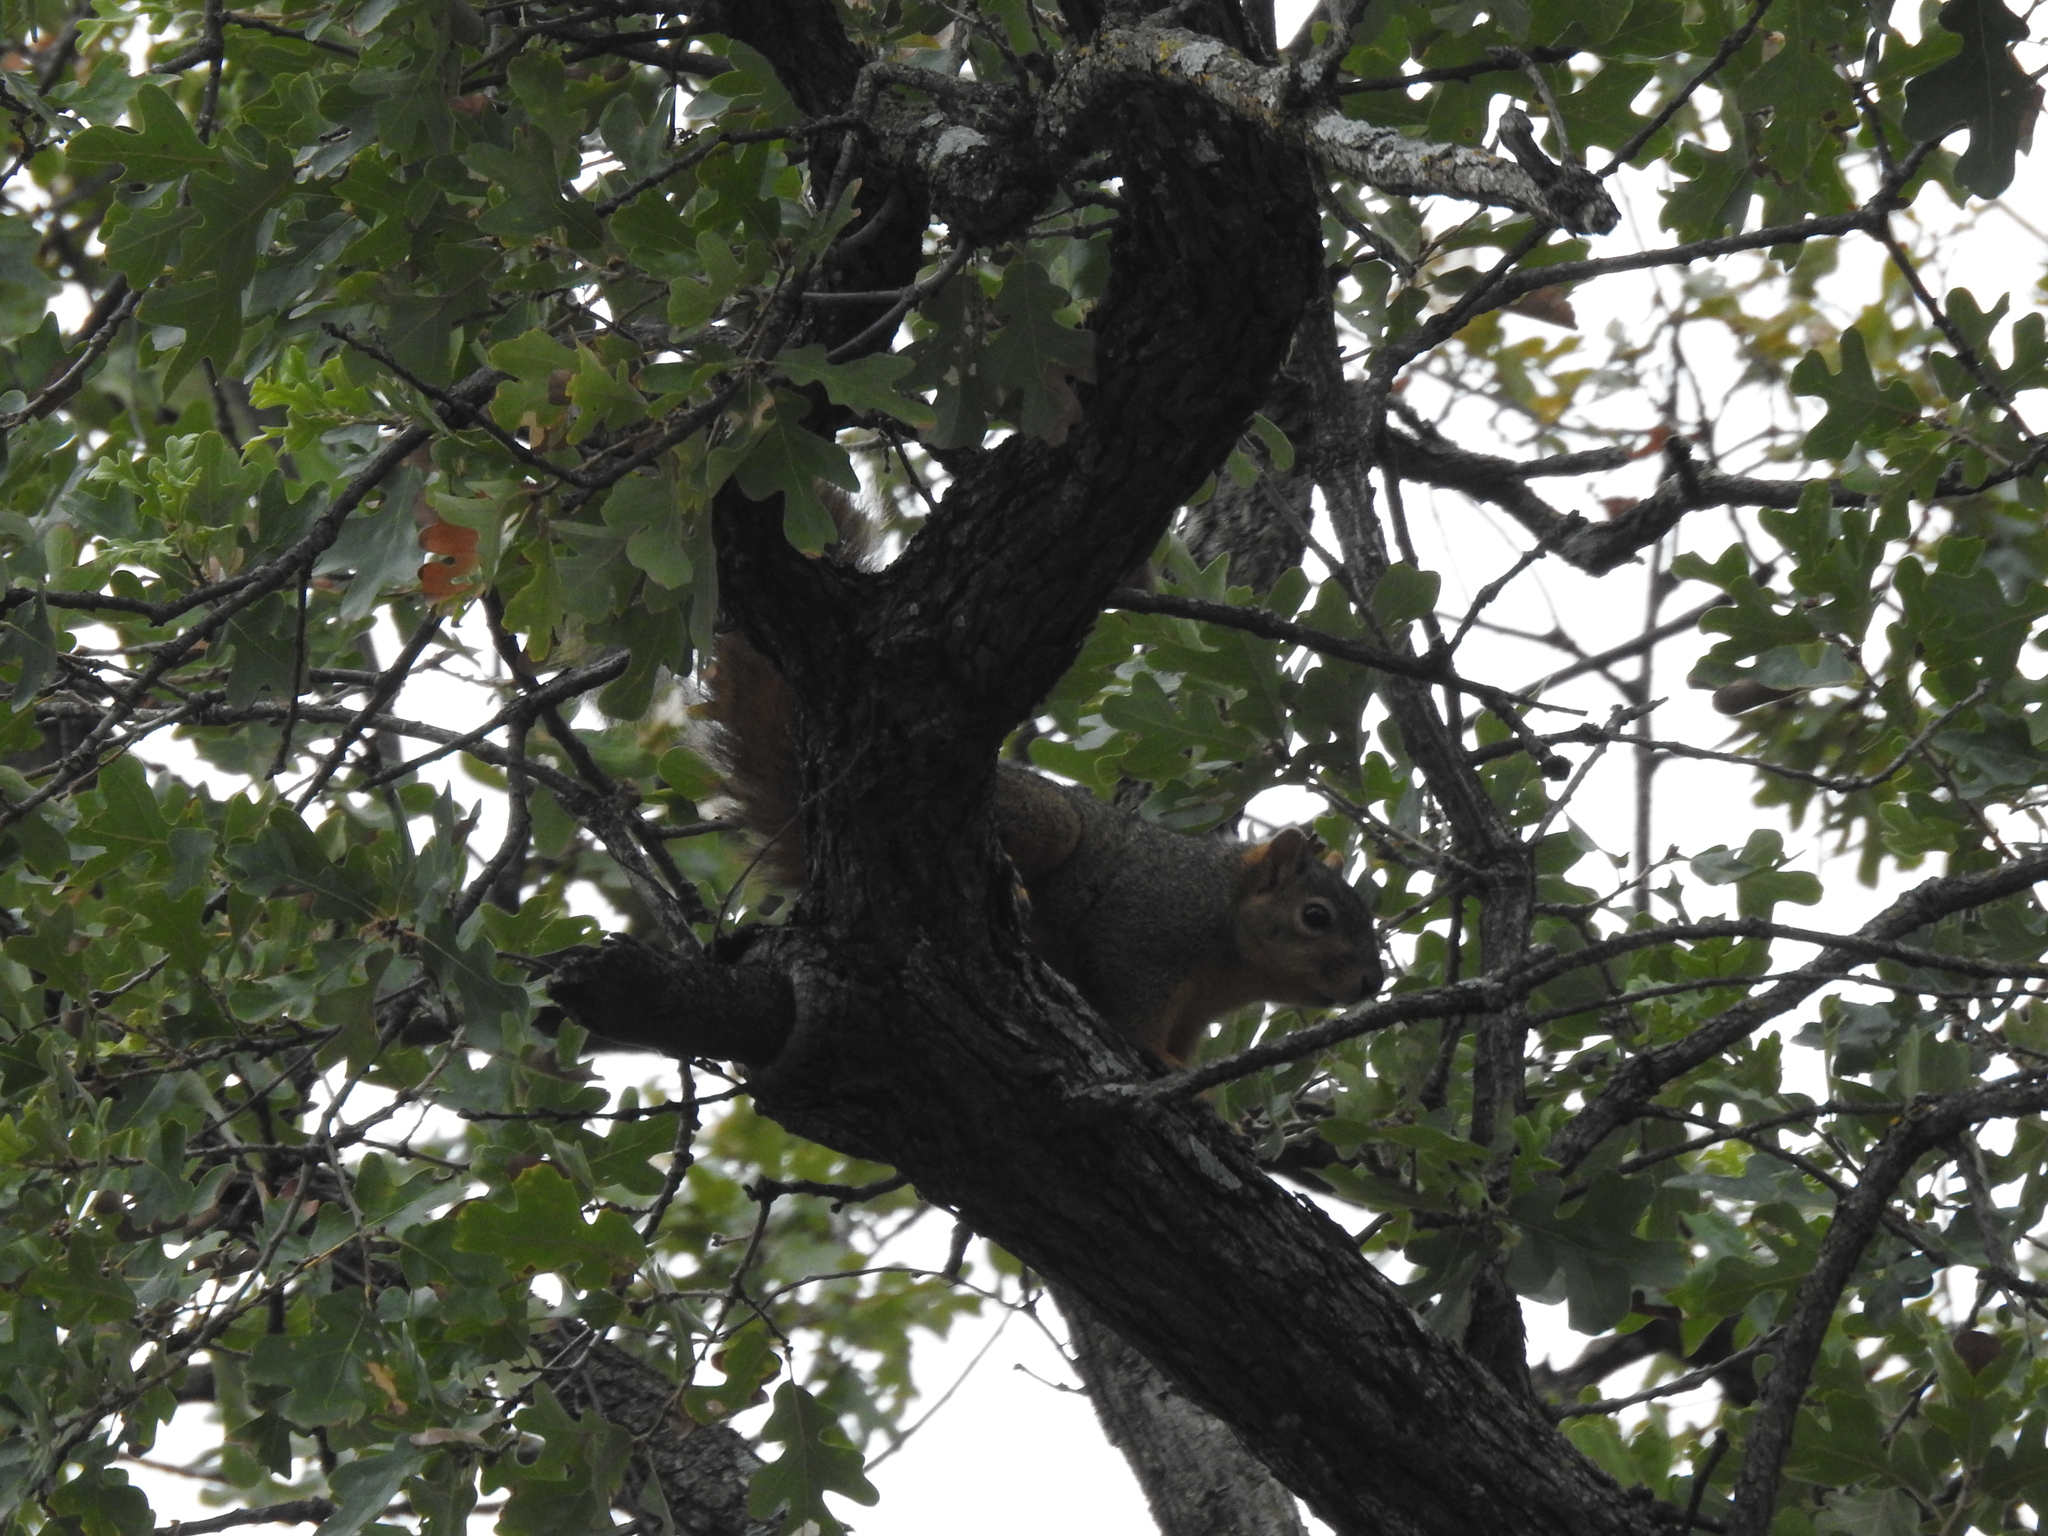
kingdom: Animalia
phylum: Chordata
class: Mammalia
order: Rodentia
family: Sciuridae
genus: Sciurus
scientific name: Sciurus niger
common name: Fox squirrel
